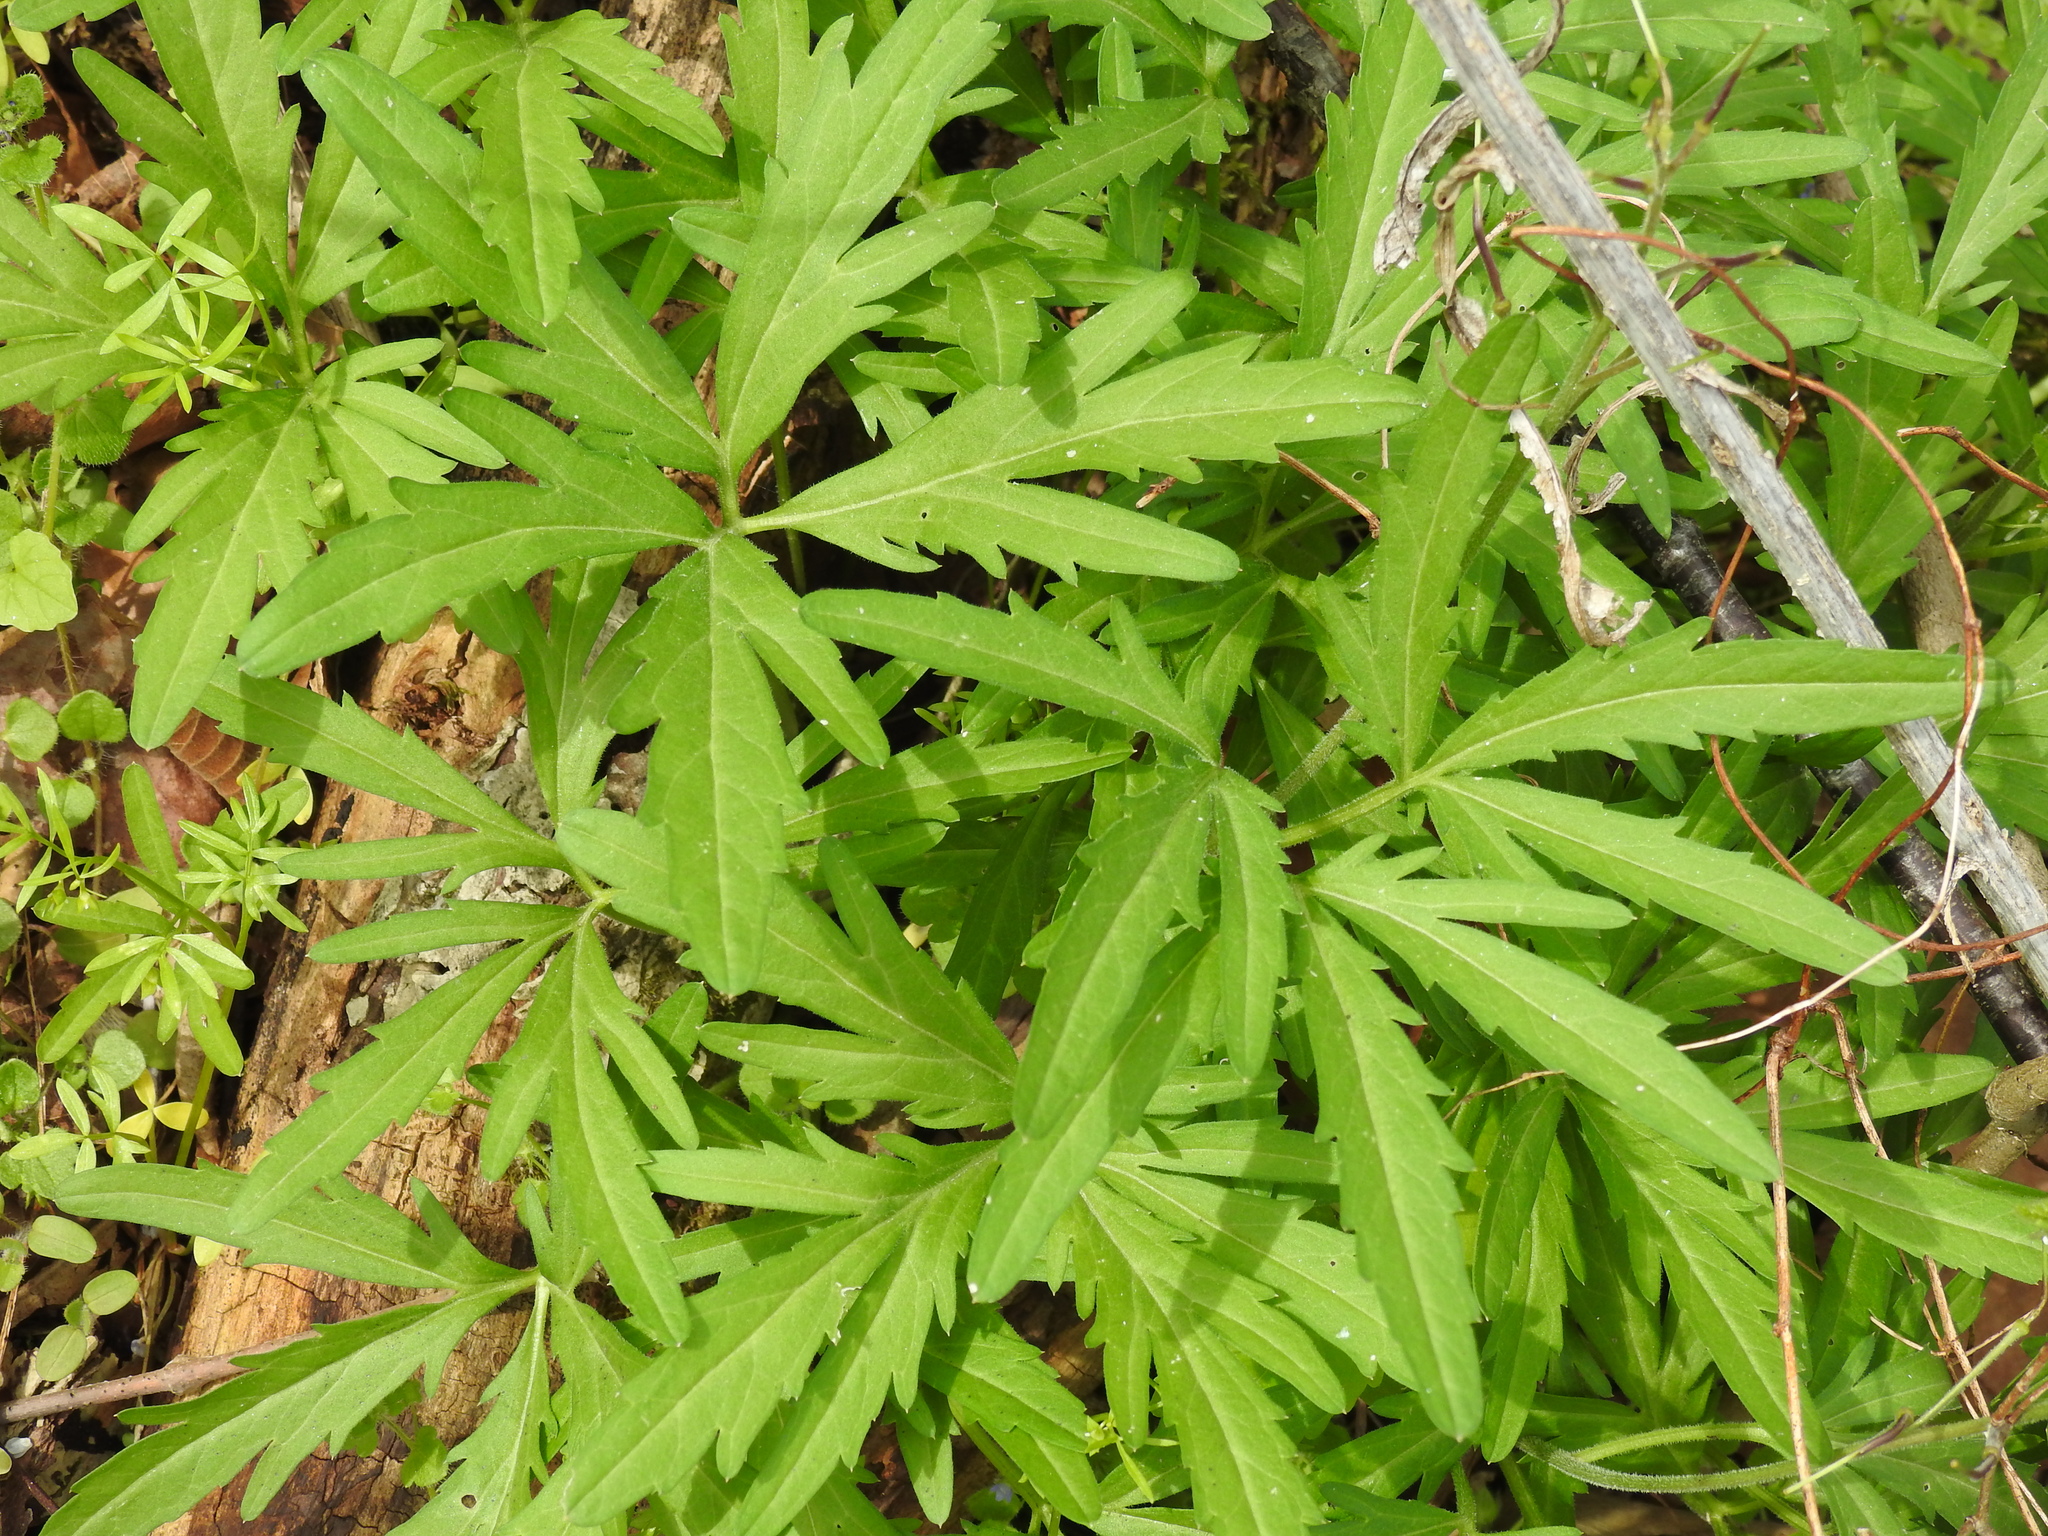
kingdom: Plantae
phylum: Tracheophyta
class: Magnoliopsida
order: Brassicales
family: Brassicaceae
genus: Cardamine
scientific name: Cardamine concatenata
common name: Cut-leaf toothcup
